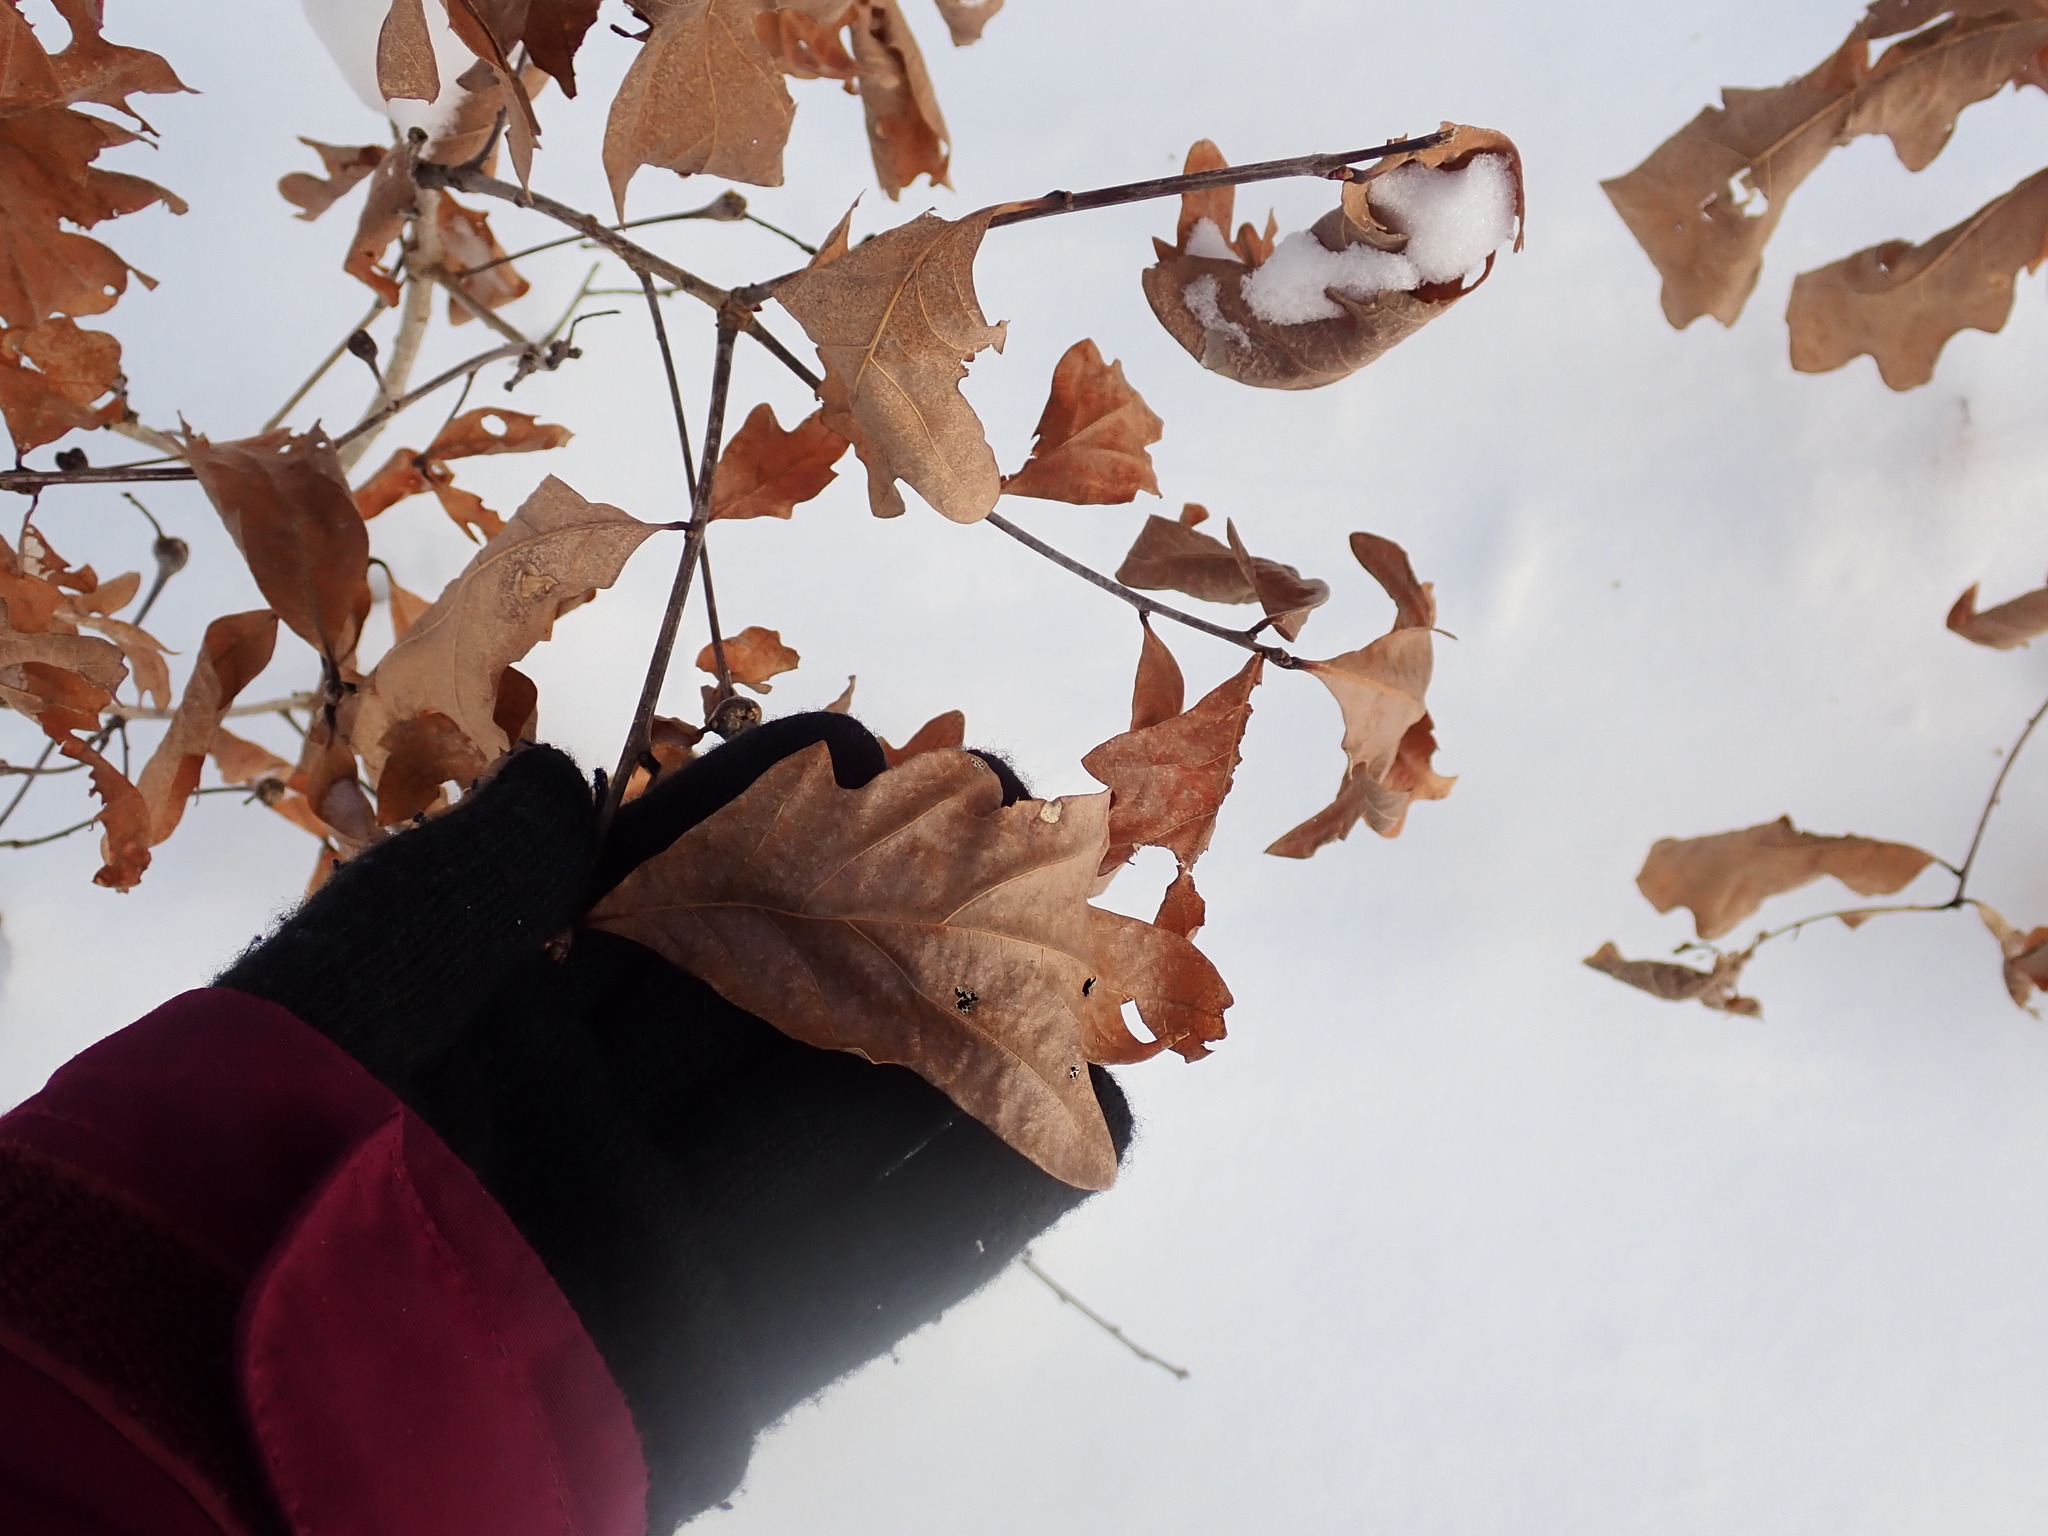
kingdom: Plantae
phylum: Tracheophyta
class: Magnoliopsida
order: Fagales
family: Fagaceae
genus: Quercus
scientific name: Quercus alba
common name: White oak
